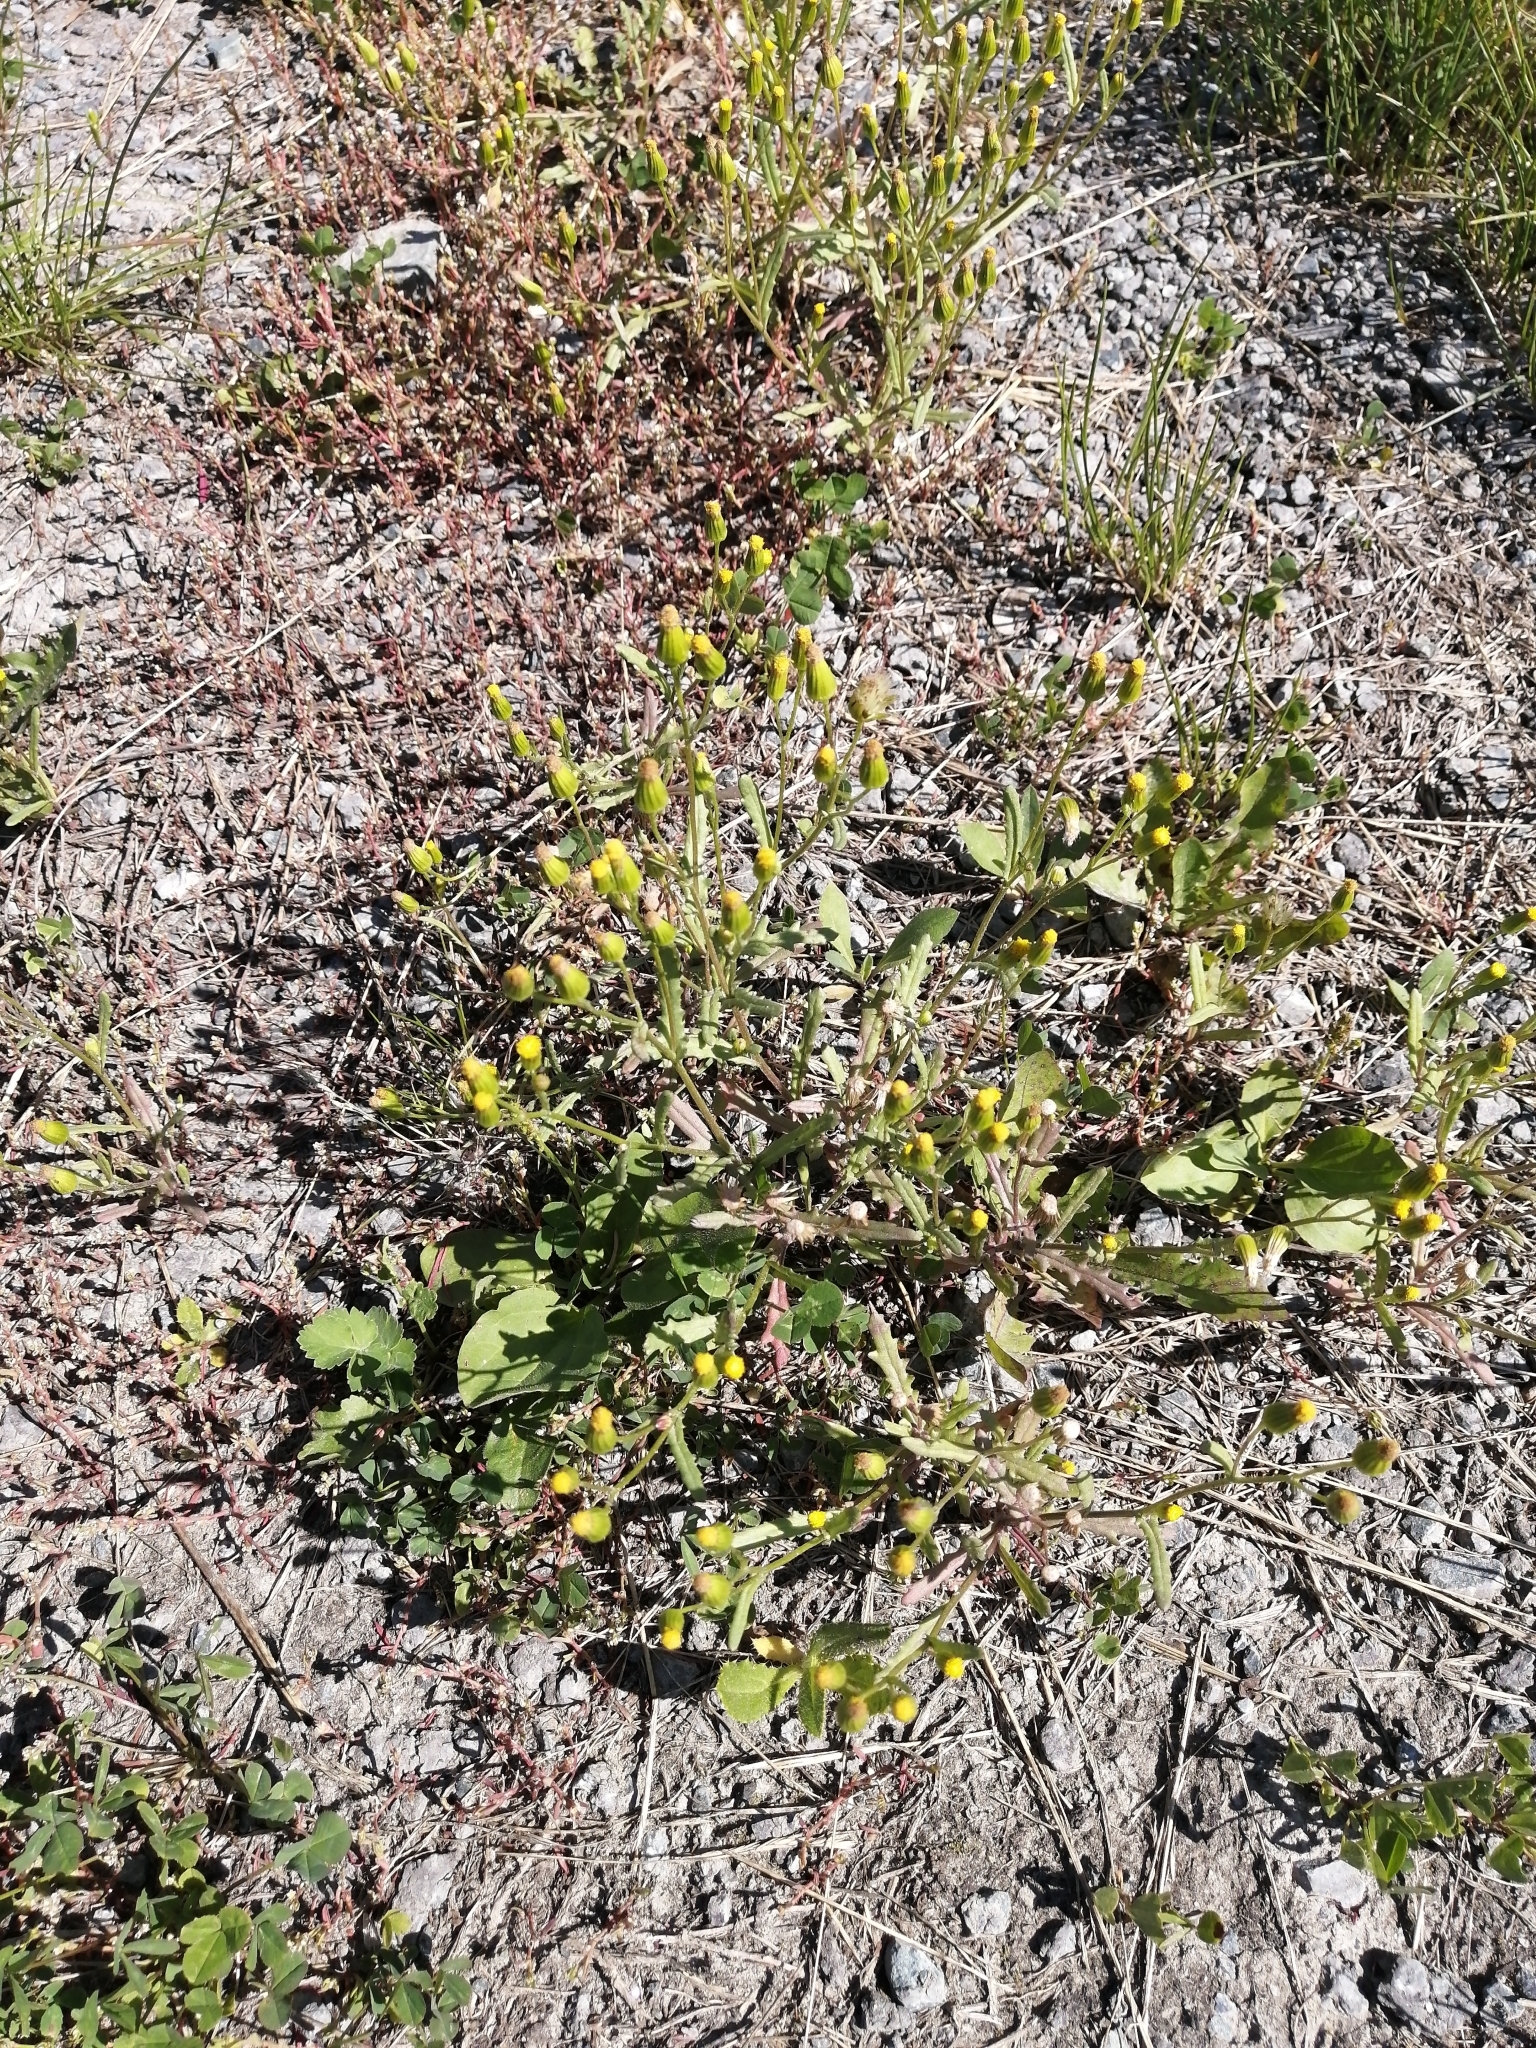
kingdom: Plantae
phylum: Tracheophyta
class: Magnoliopsida
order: Asterales
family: Asteraceae
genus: Senecio
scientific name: Senecio dubitabilis
